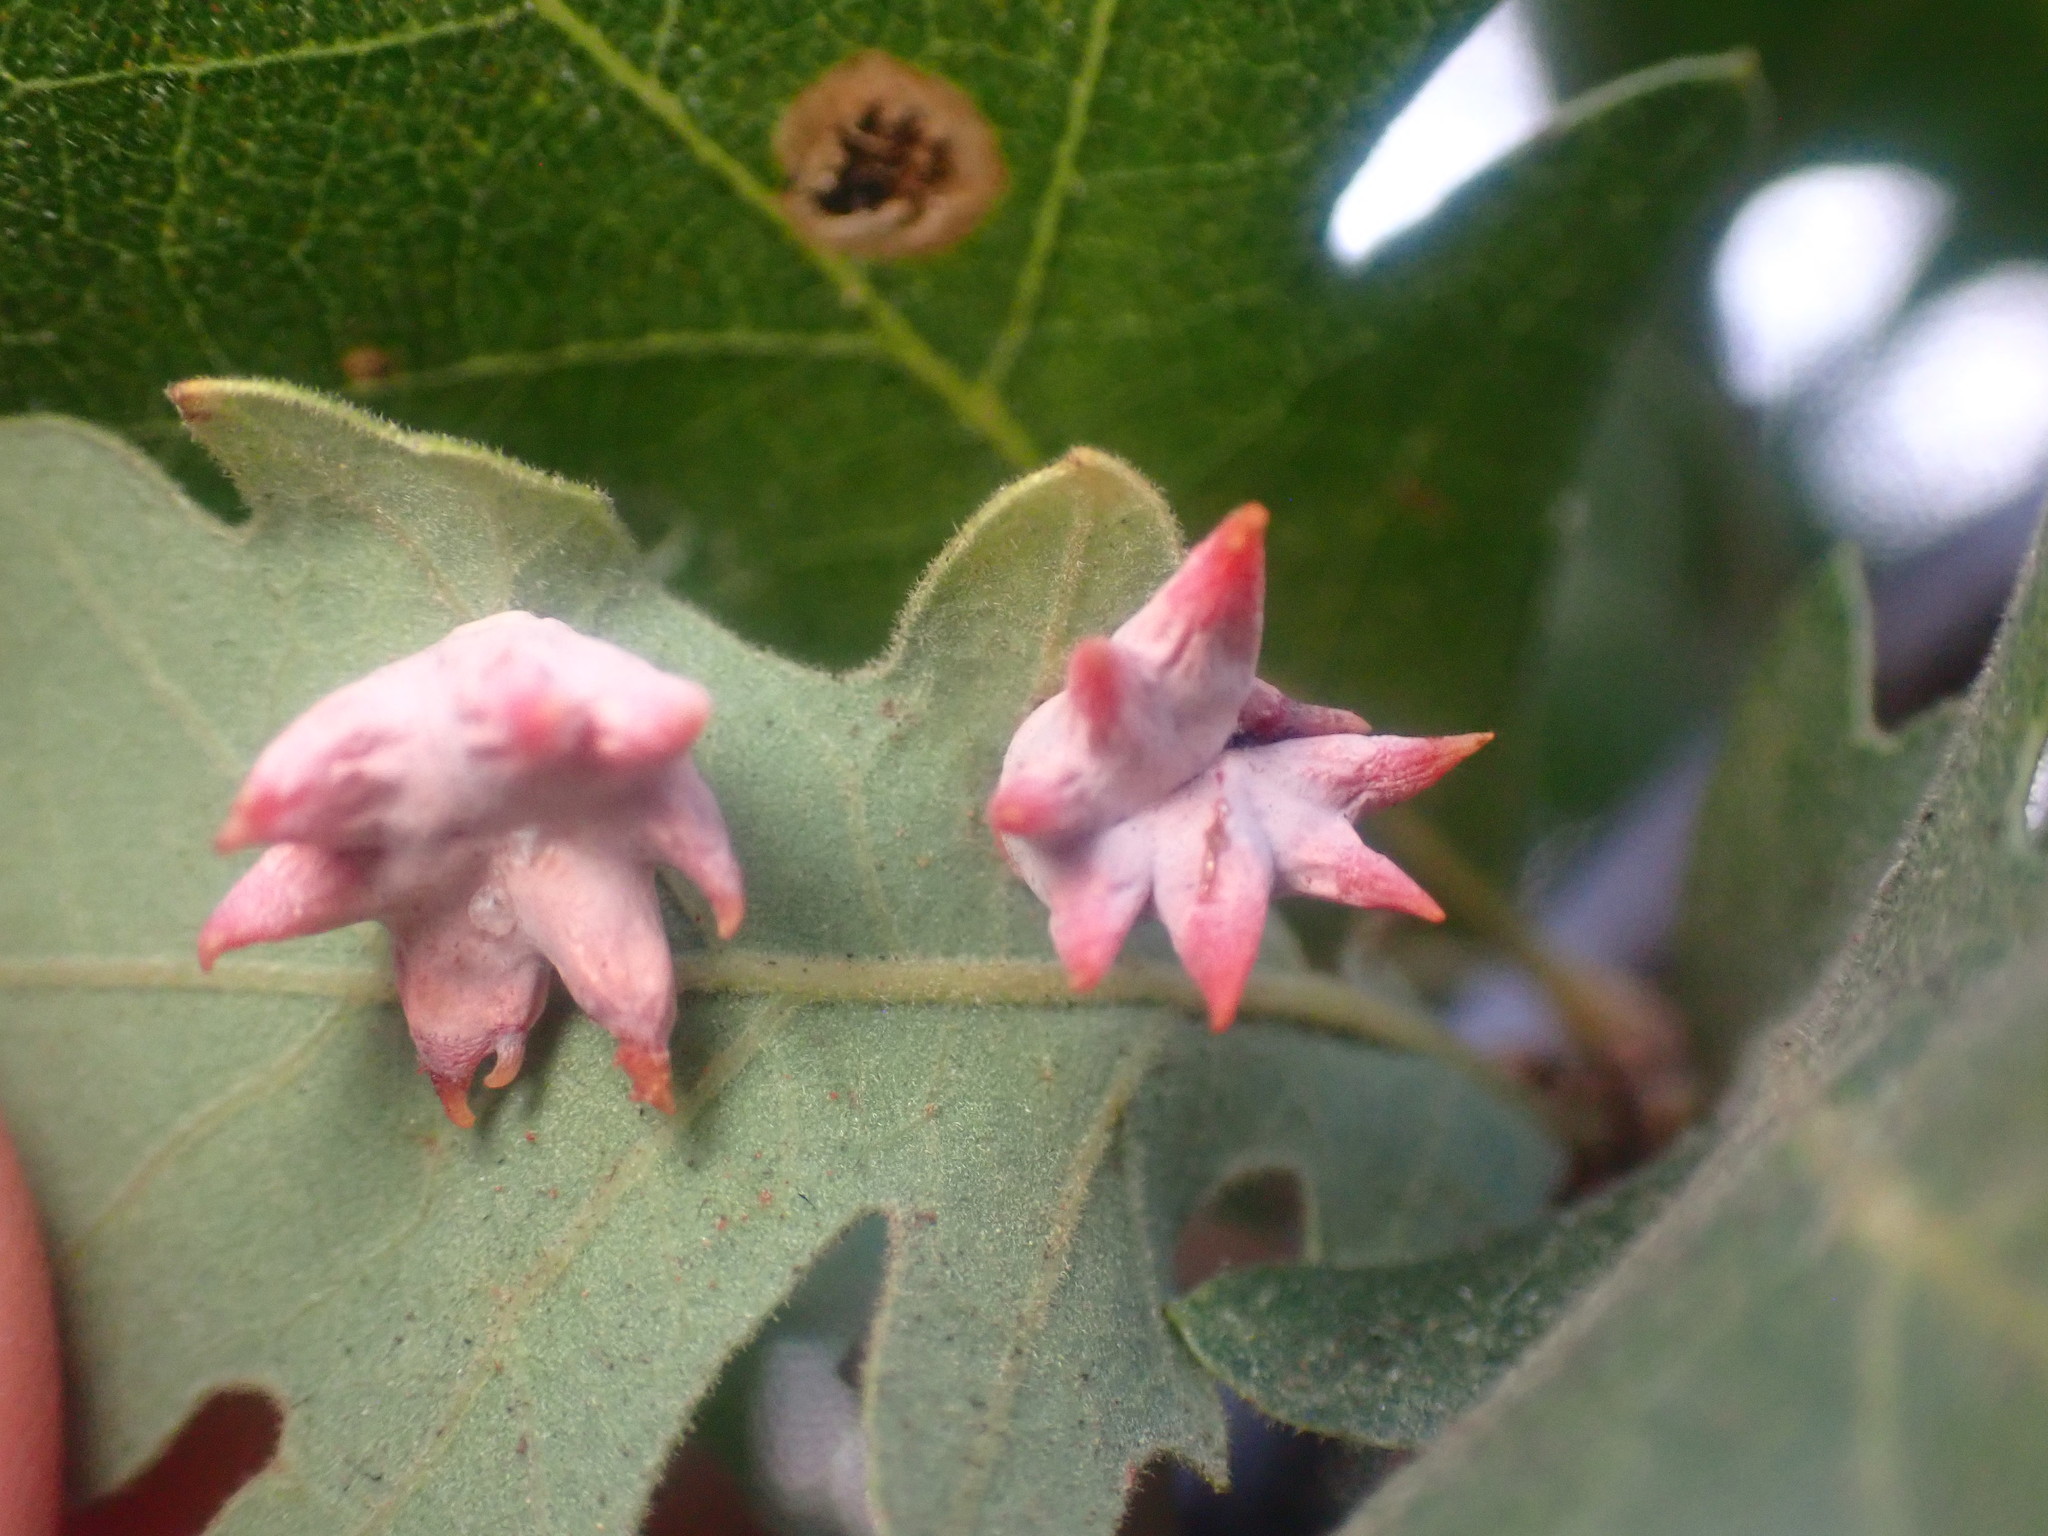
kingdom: Animalia
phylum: Arthropoda
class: Insecta
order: Hymenoptera
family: Cynipidae
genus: Cynips
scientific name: Cynips douglasi
